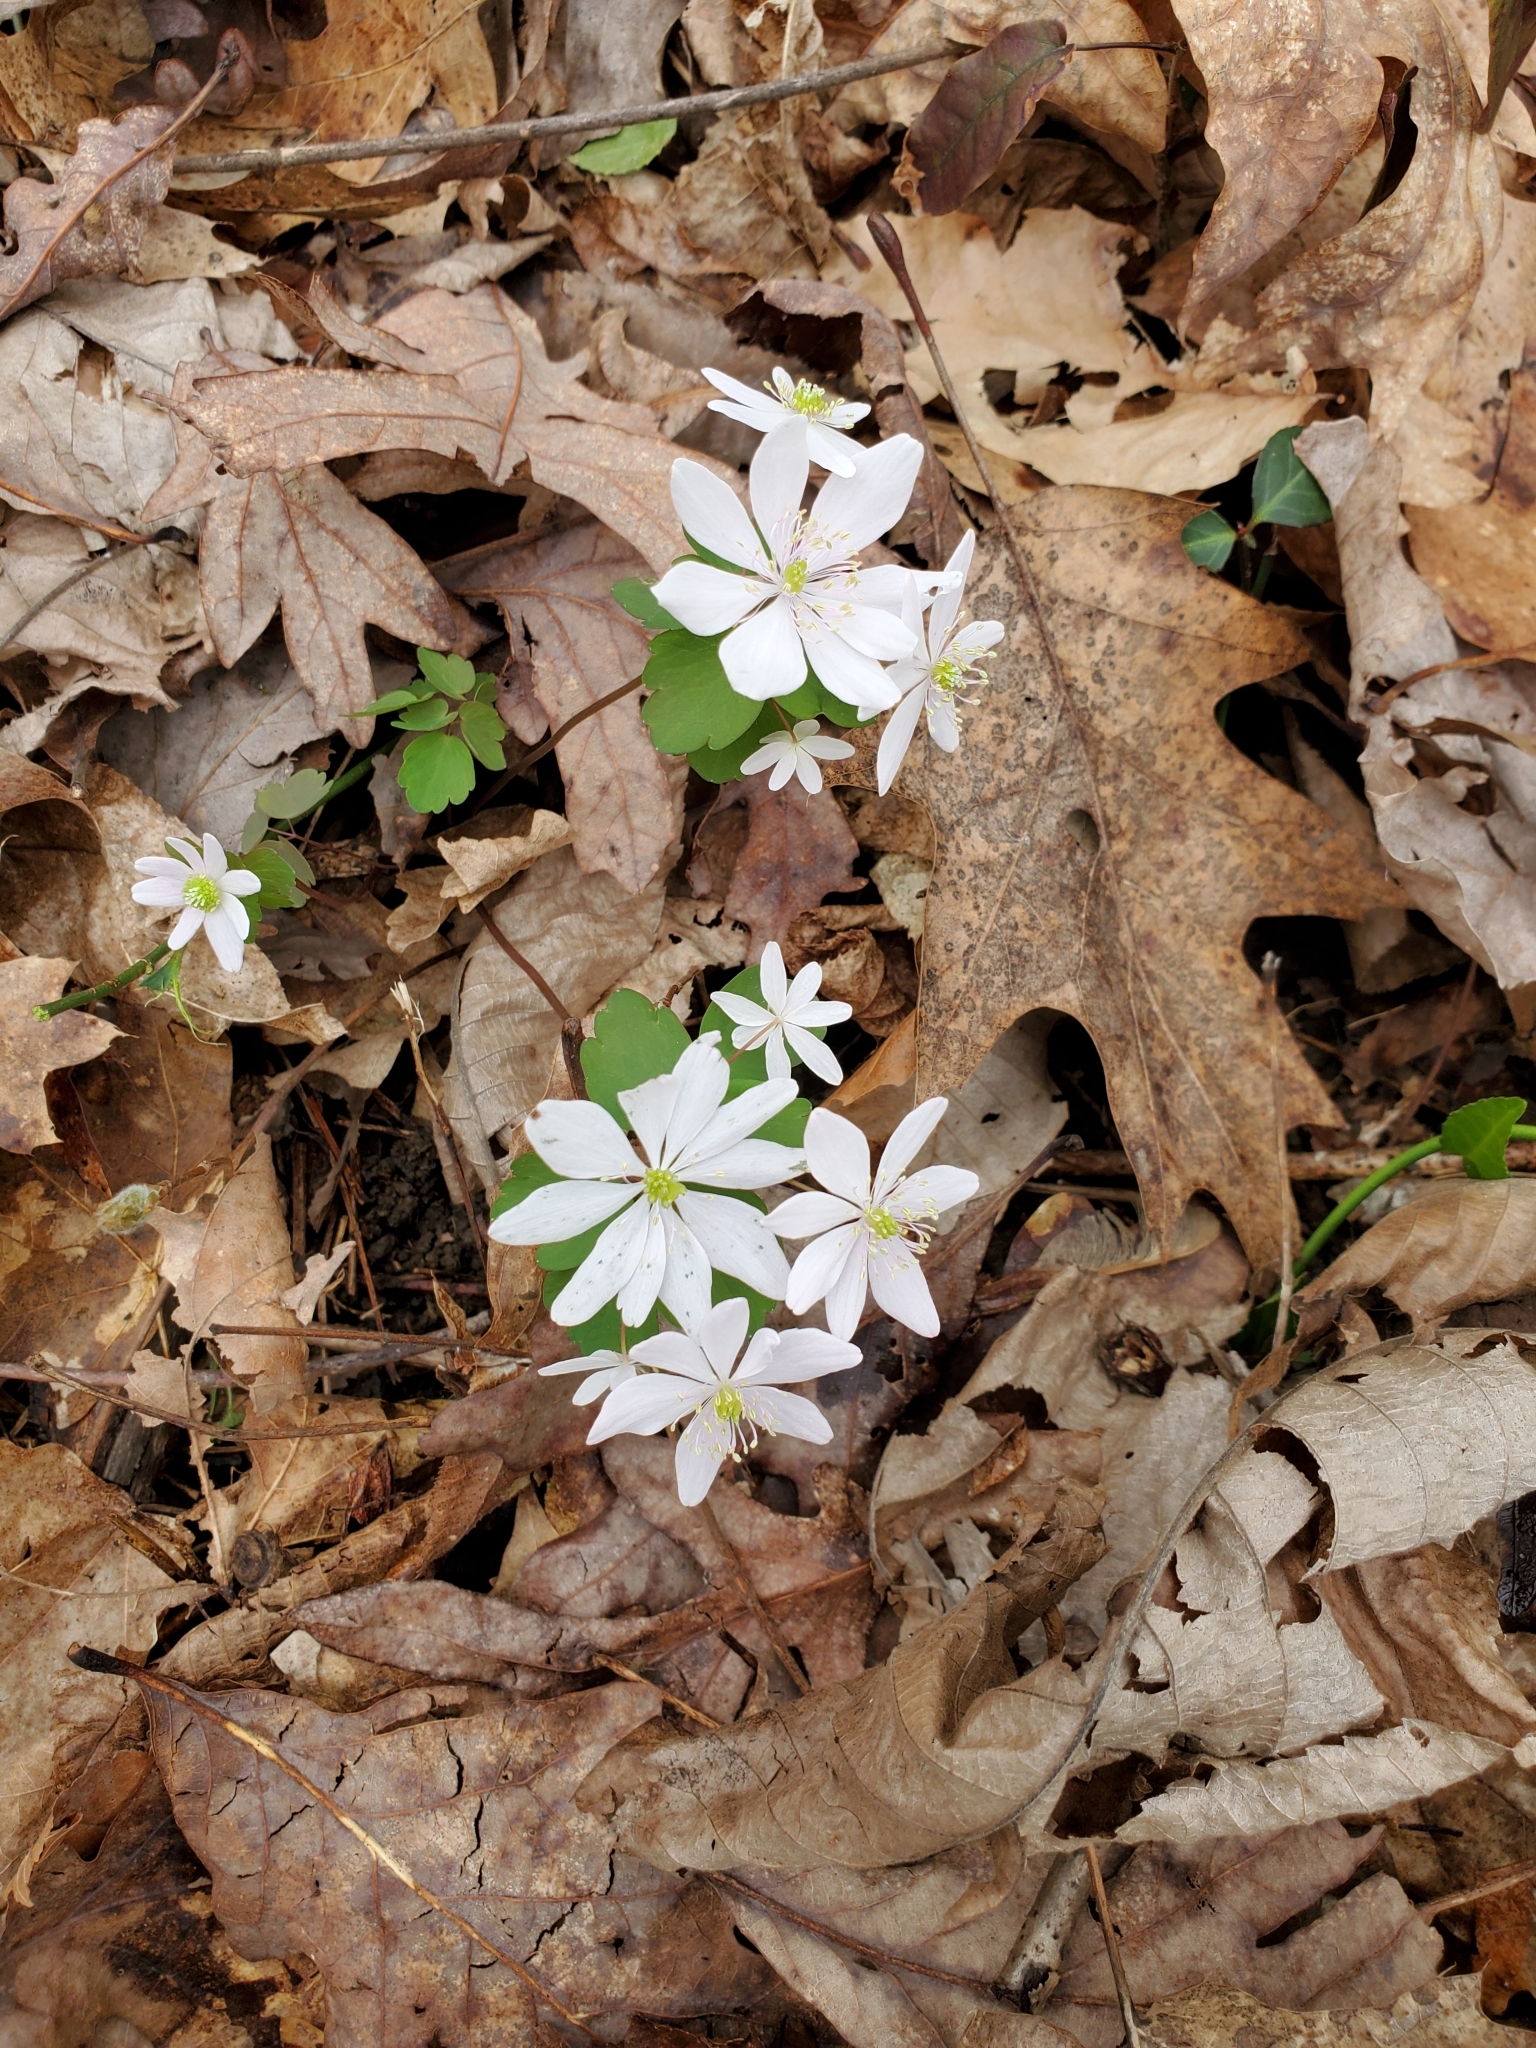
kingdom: Plantae
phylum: Tracheophyta
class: Magnoliopsida
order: Ranunculales
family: Ranunculaceae
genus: Thalictrum
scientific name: Thalictrum thalictroides
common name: Rue-anemone
